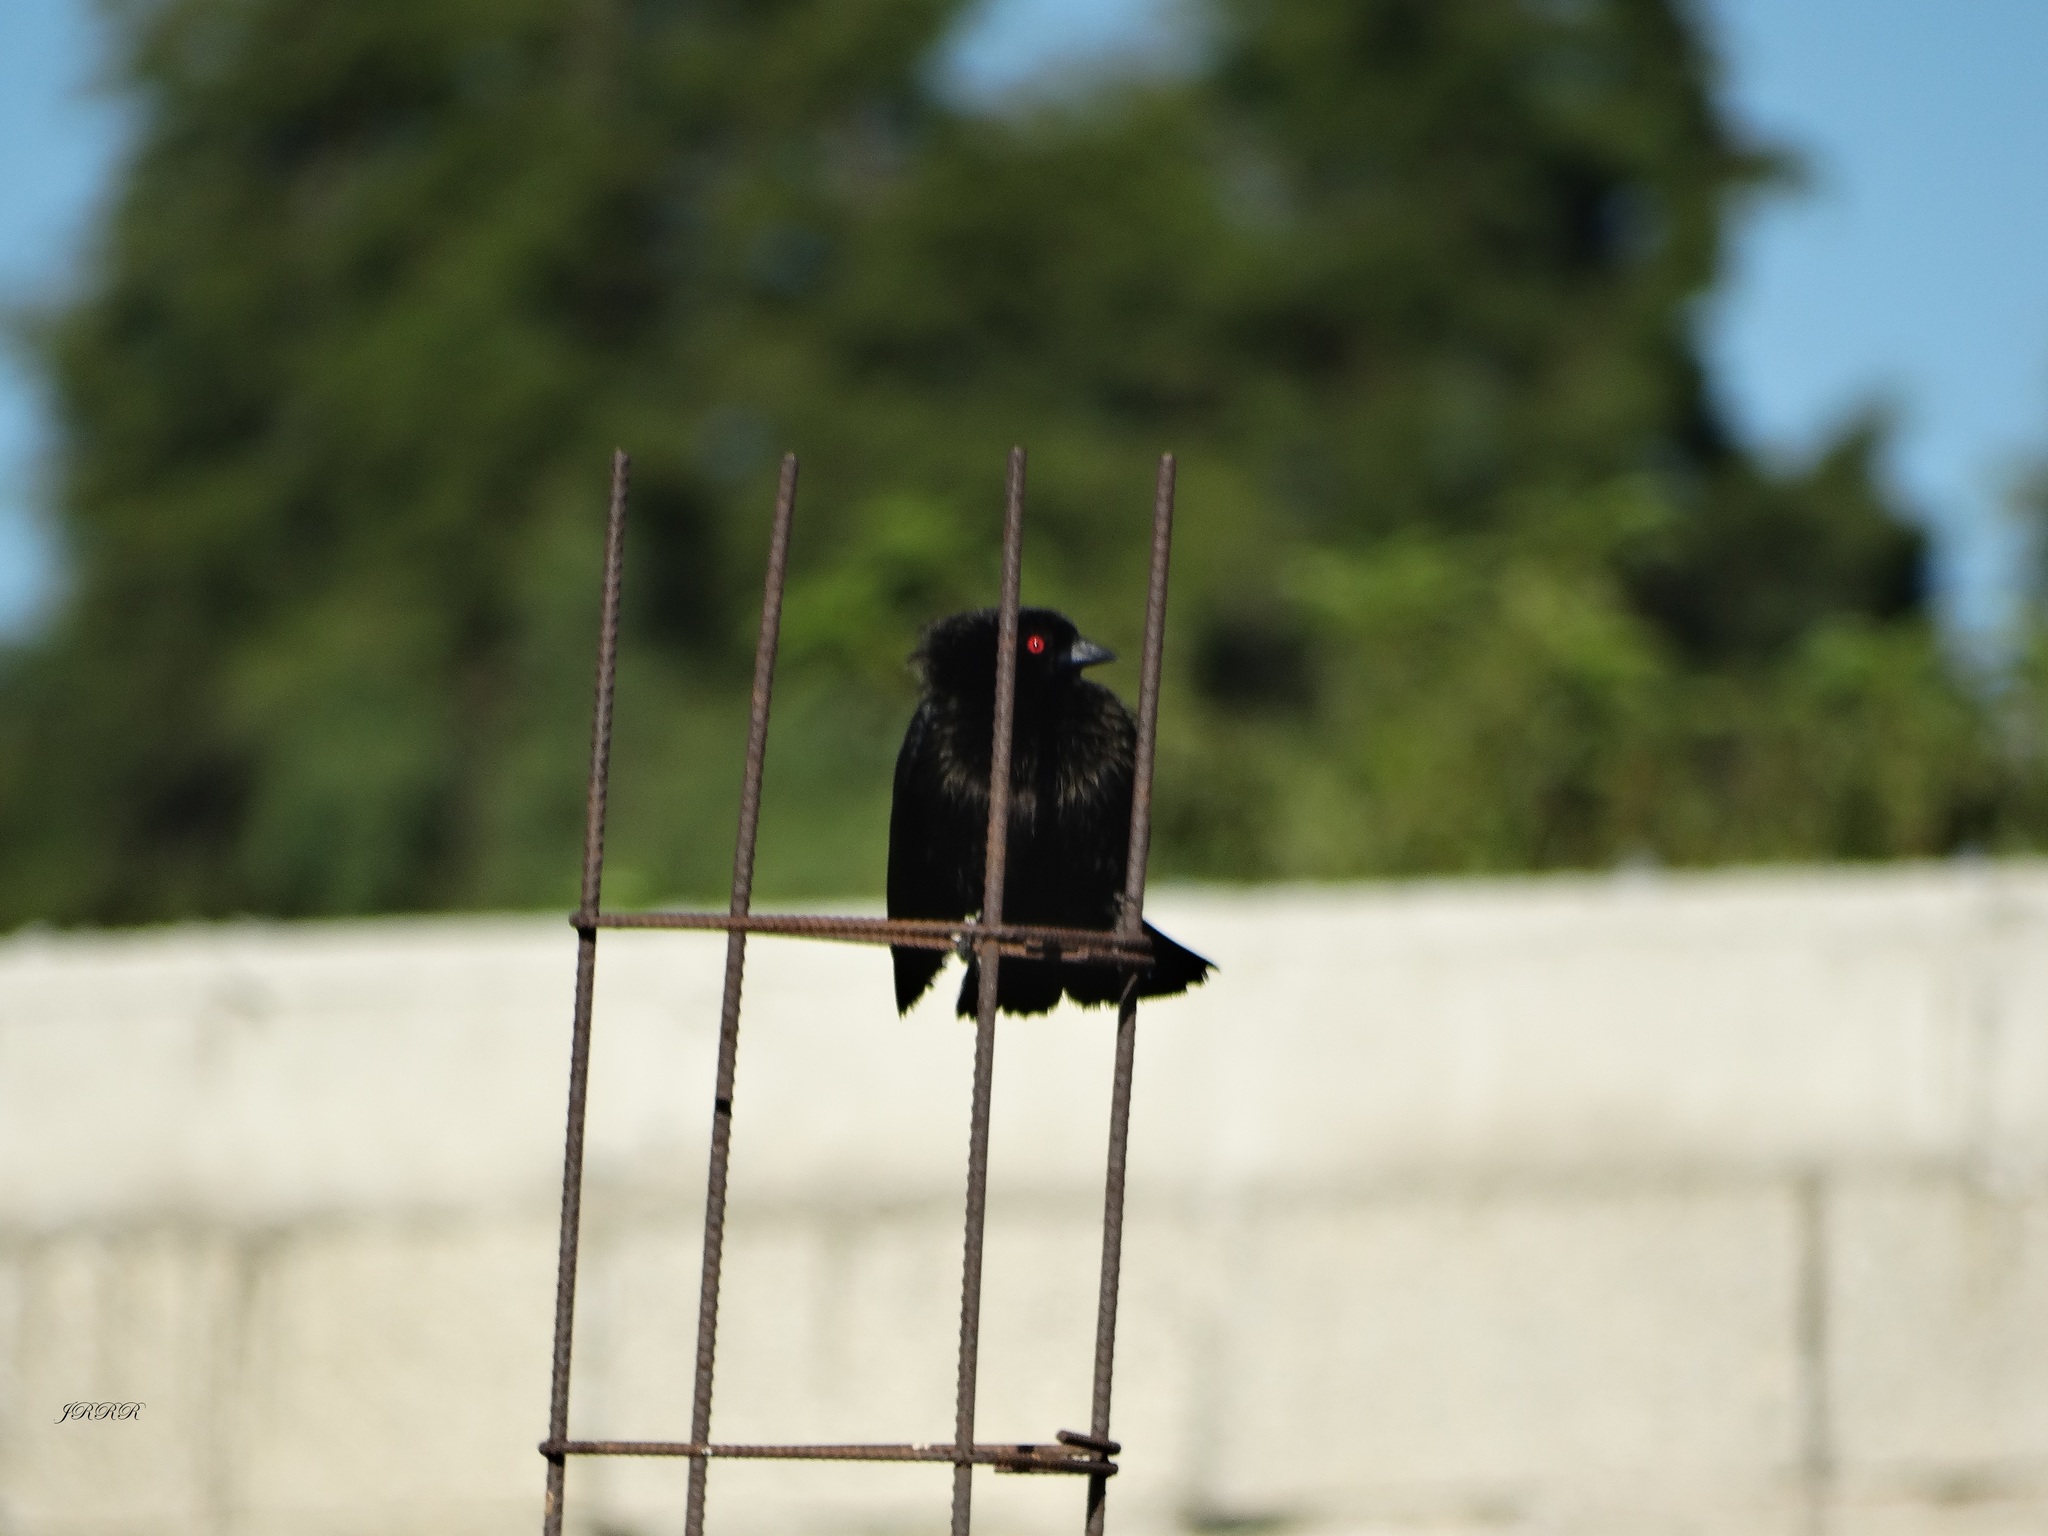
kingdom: Animalia
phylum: Chordata
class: Aves
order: Passeriformes
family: Icteridae
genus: Molothrus
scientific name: Molothrus aeneus
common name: Bronzed cowbird
